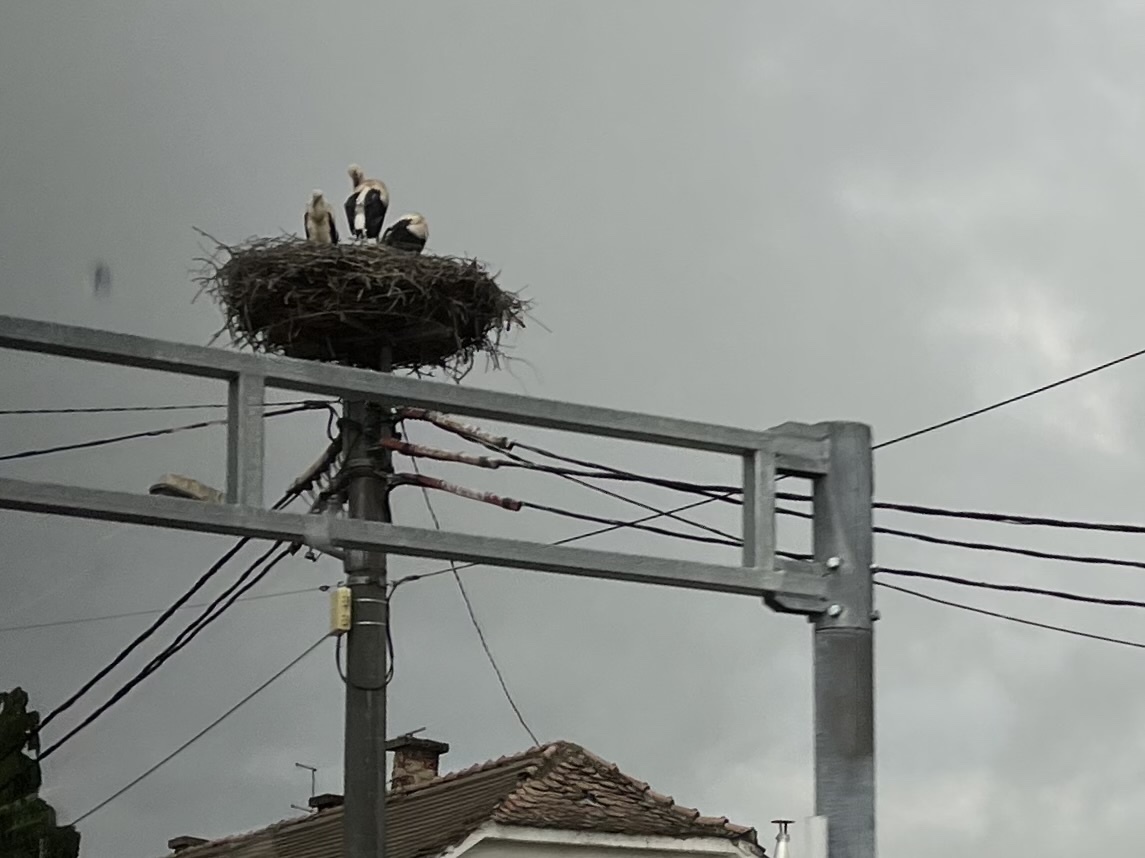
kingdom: Animalia
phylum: Chordata
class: Aves
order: Ciconiiformes
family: Ciconiidae
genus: Ciconia
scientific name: Ciconia ciconia
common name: White stork
